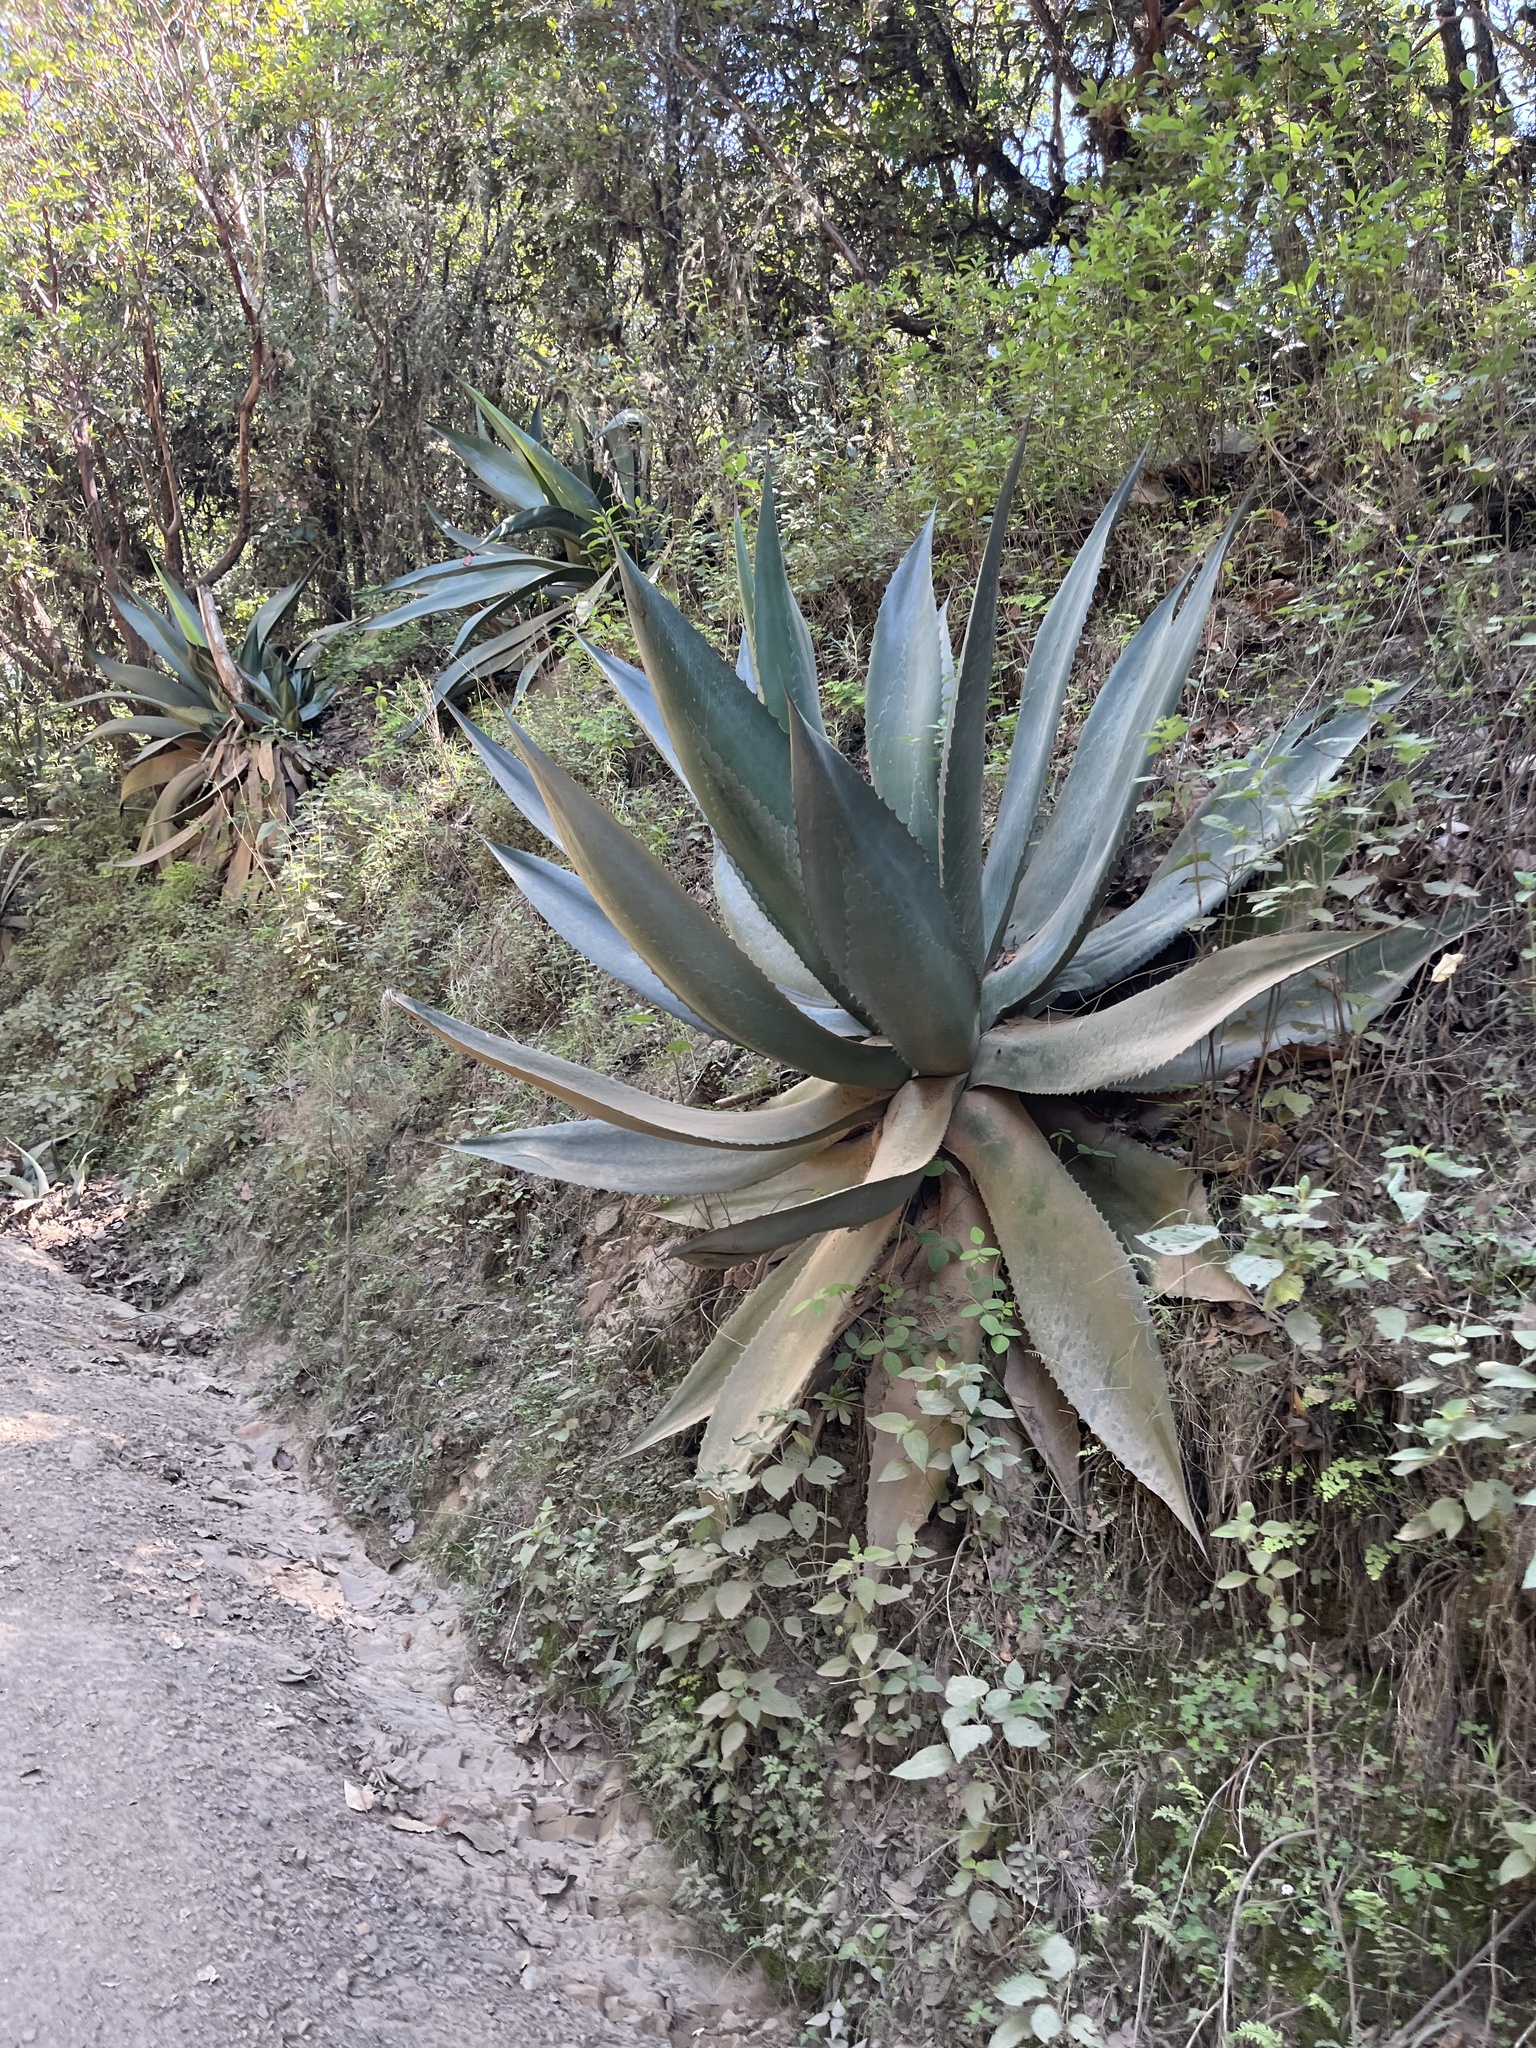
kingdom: Plantae
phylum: Tracheophyta
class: Liliopsida
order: Asparagales
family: Asparagaceae
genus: Agave
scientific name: Agave atrovirens
